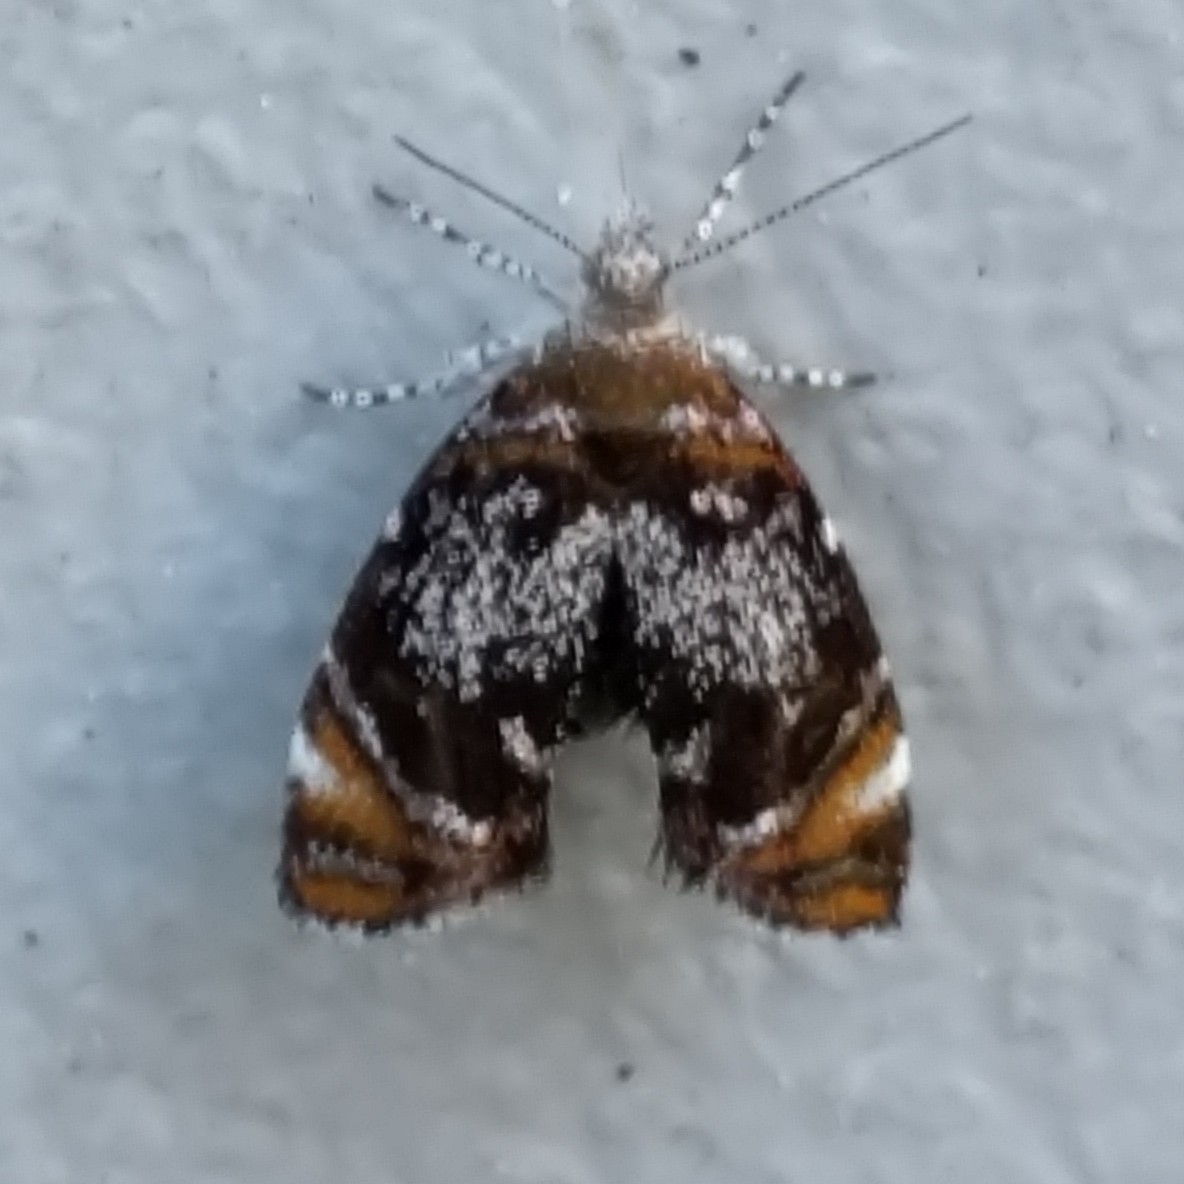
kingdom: Animalia
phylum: Arthropoda
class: Insecta
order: Lepidoptera
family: Choreutidae
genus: Prochoreutis
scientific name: Prochoreutis inflatella
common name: Skullcap skeletonizer moth
